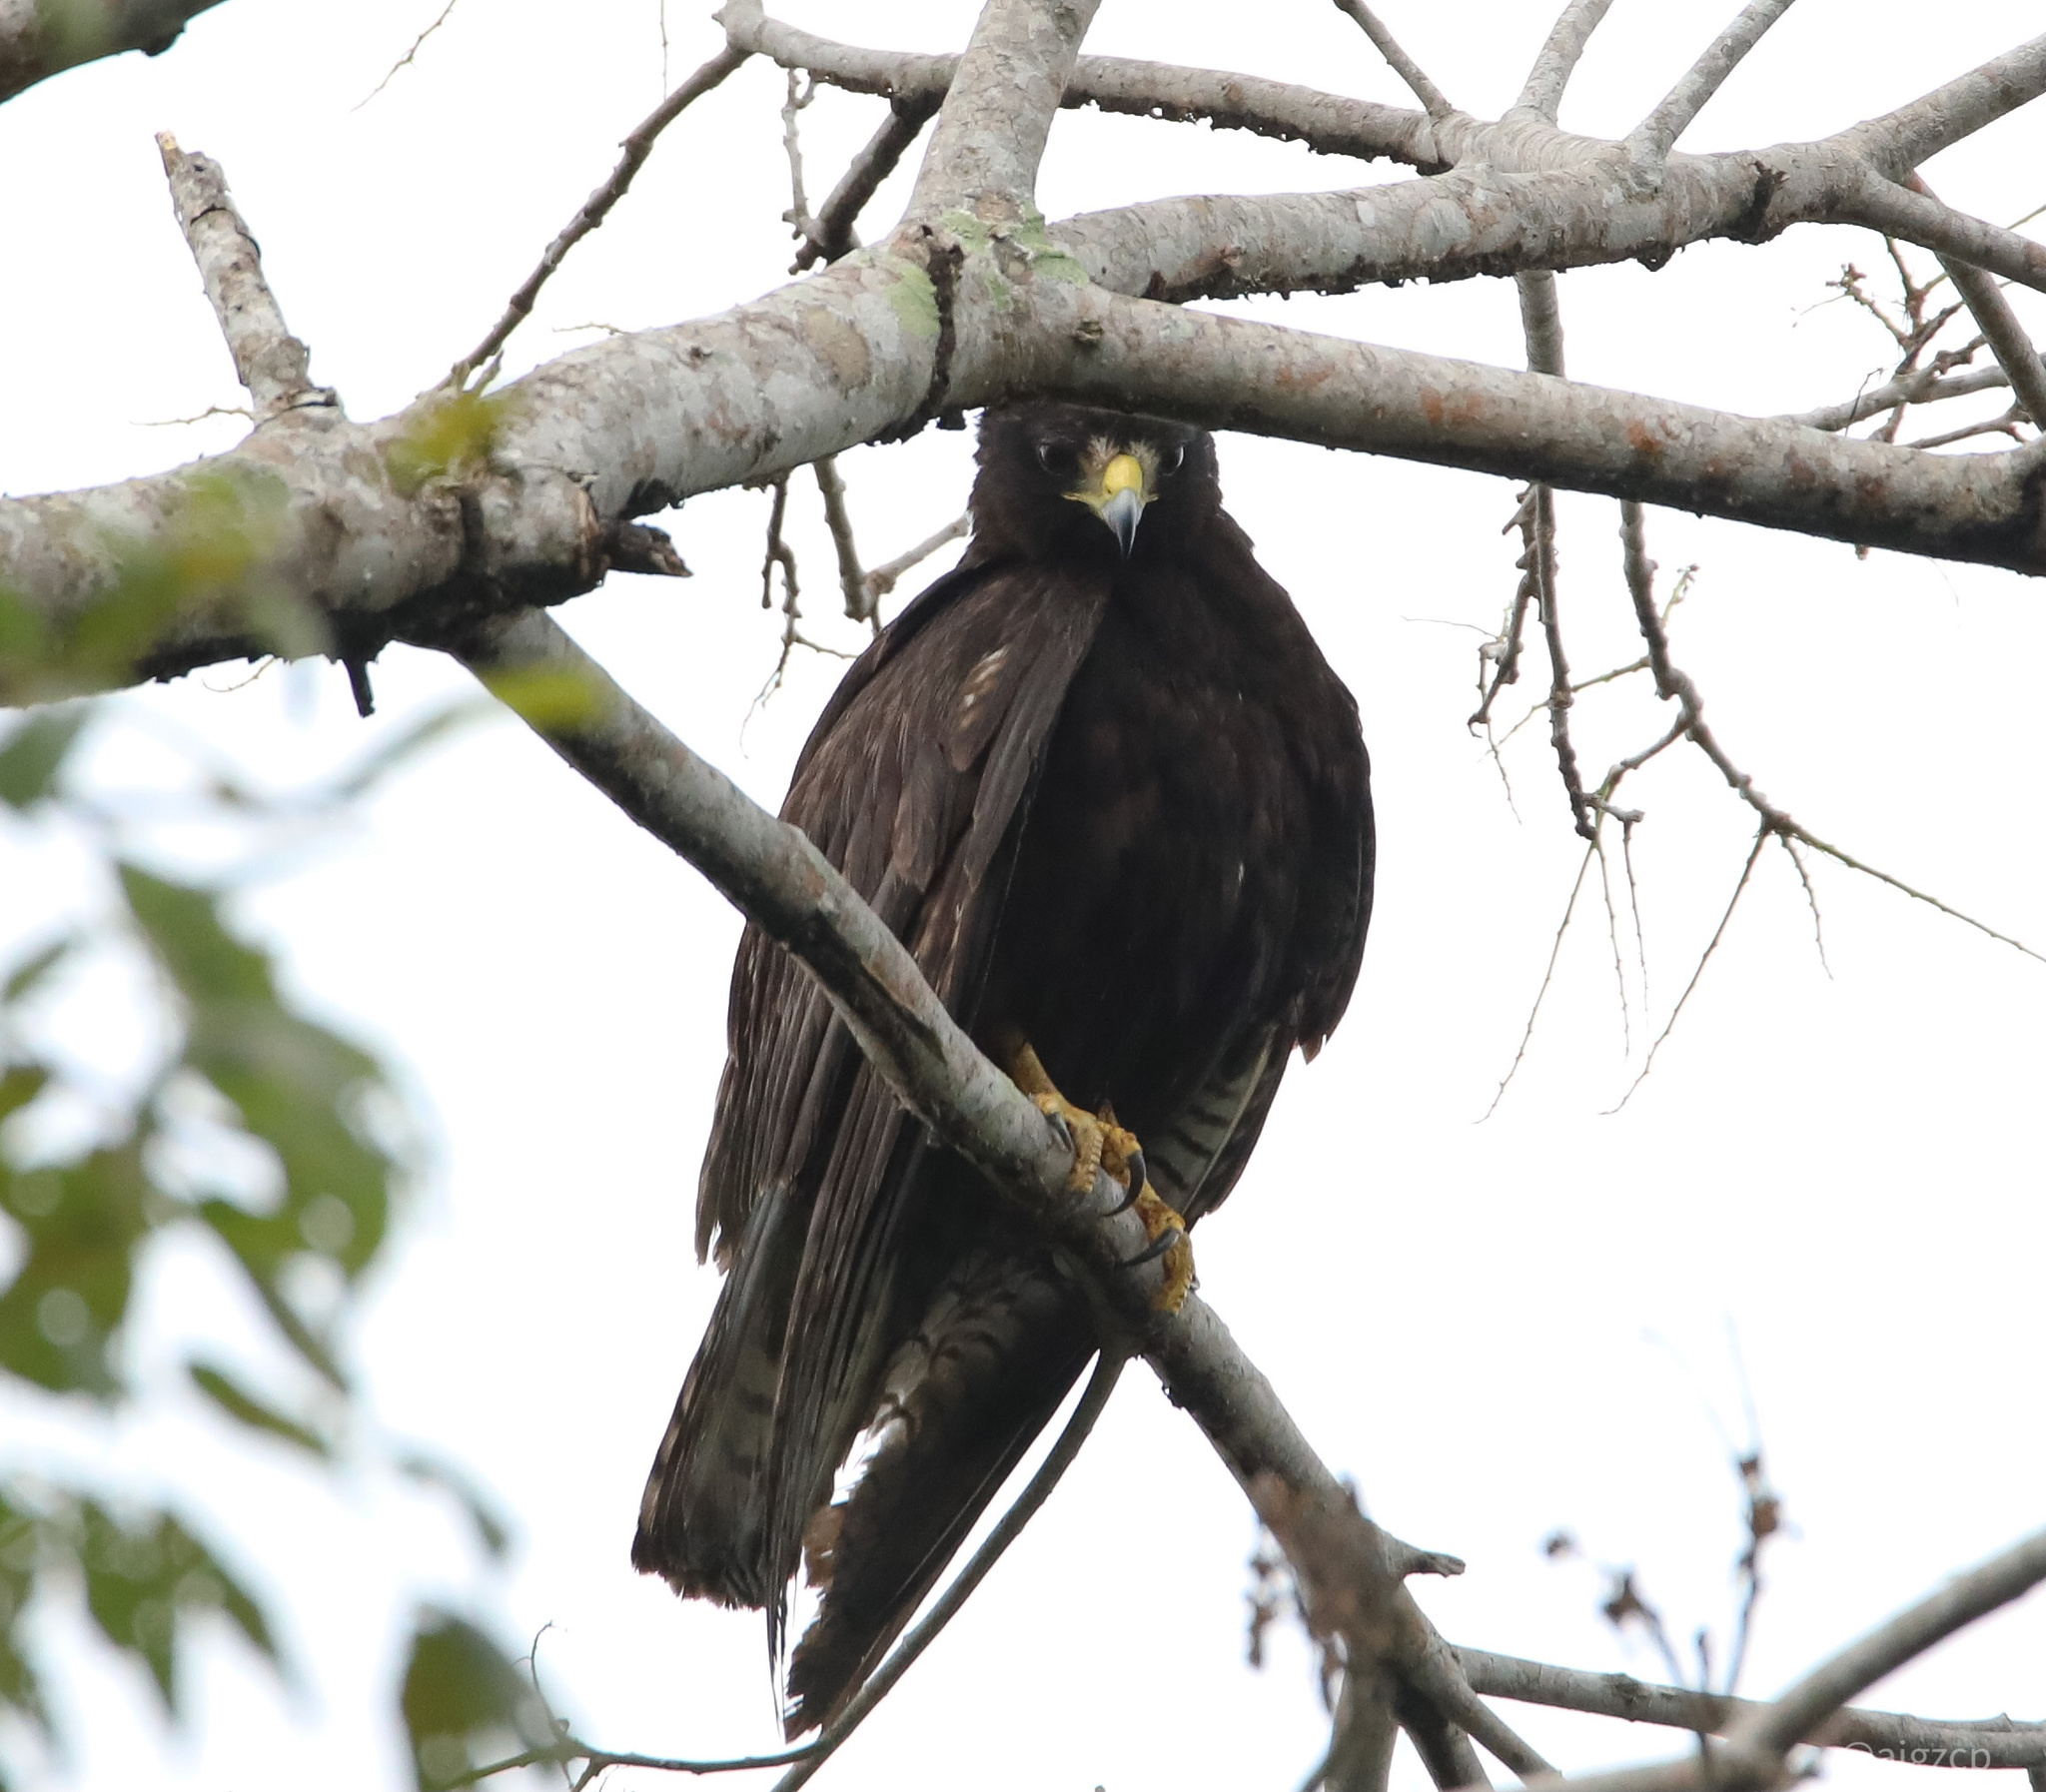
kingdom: Animalia
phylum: Chordata
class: Aves
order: Accipitriformes
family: Accipitridae
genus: Buteo
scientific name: Buteo albonotatus
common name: Zone-tailed hawk
